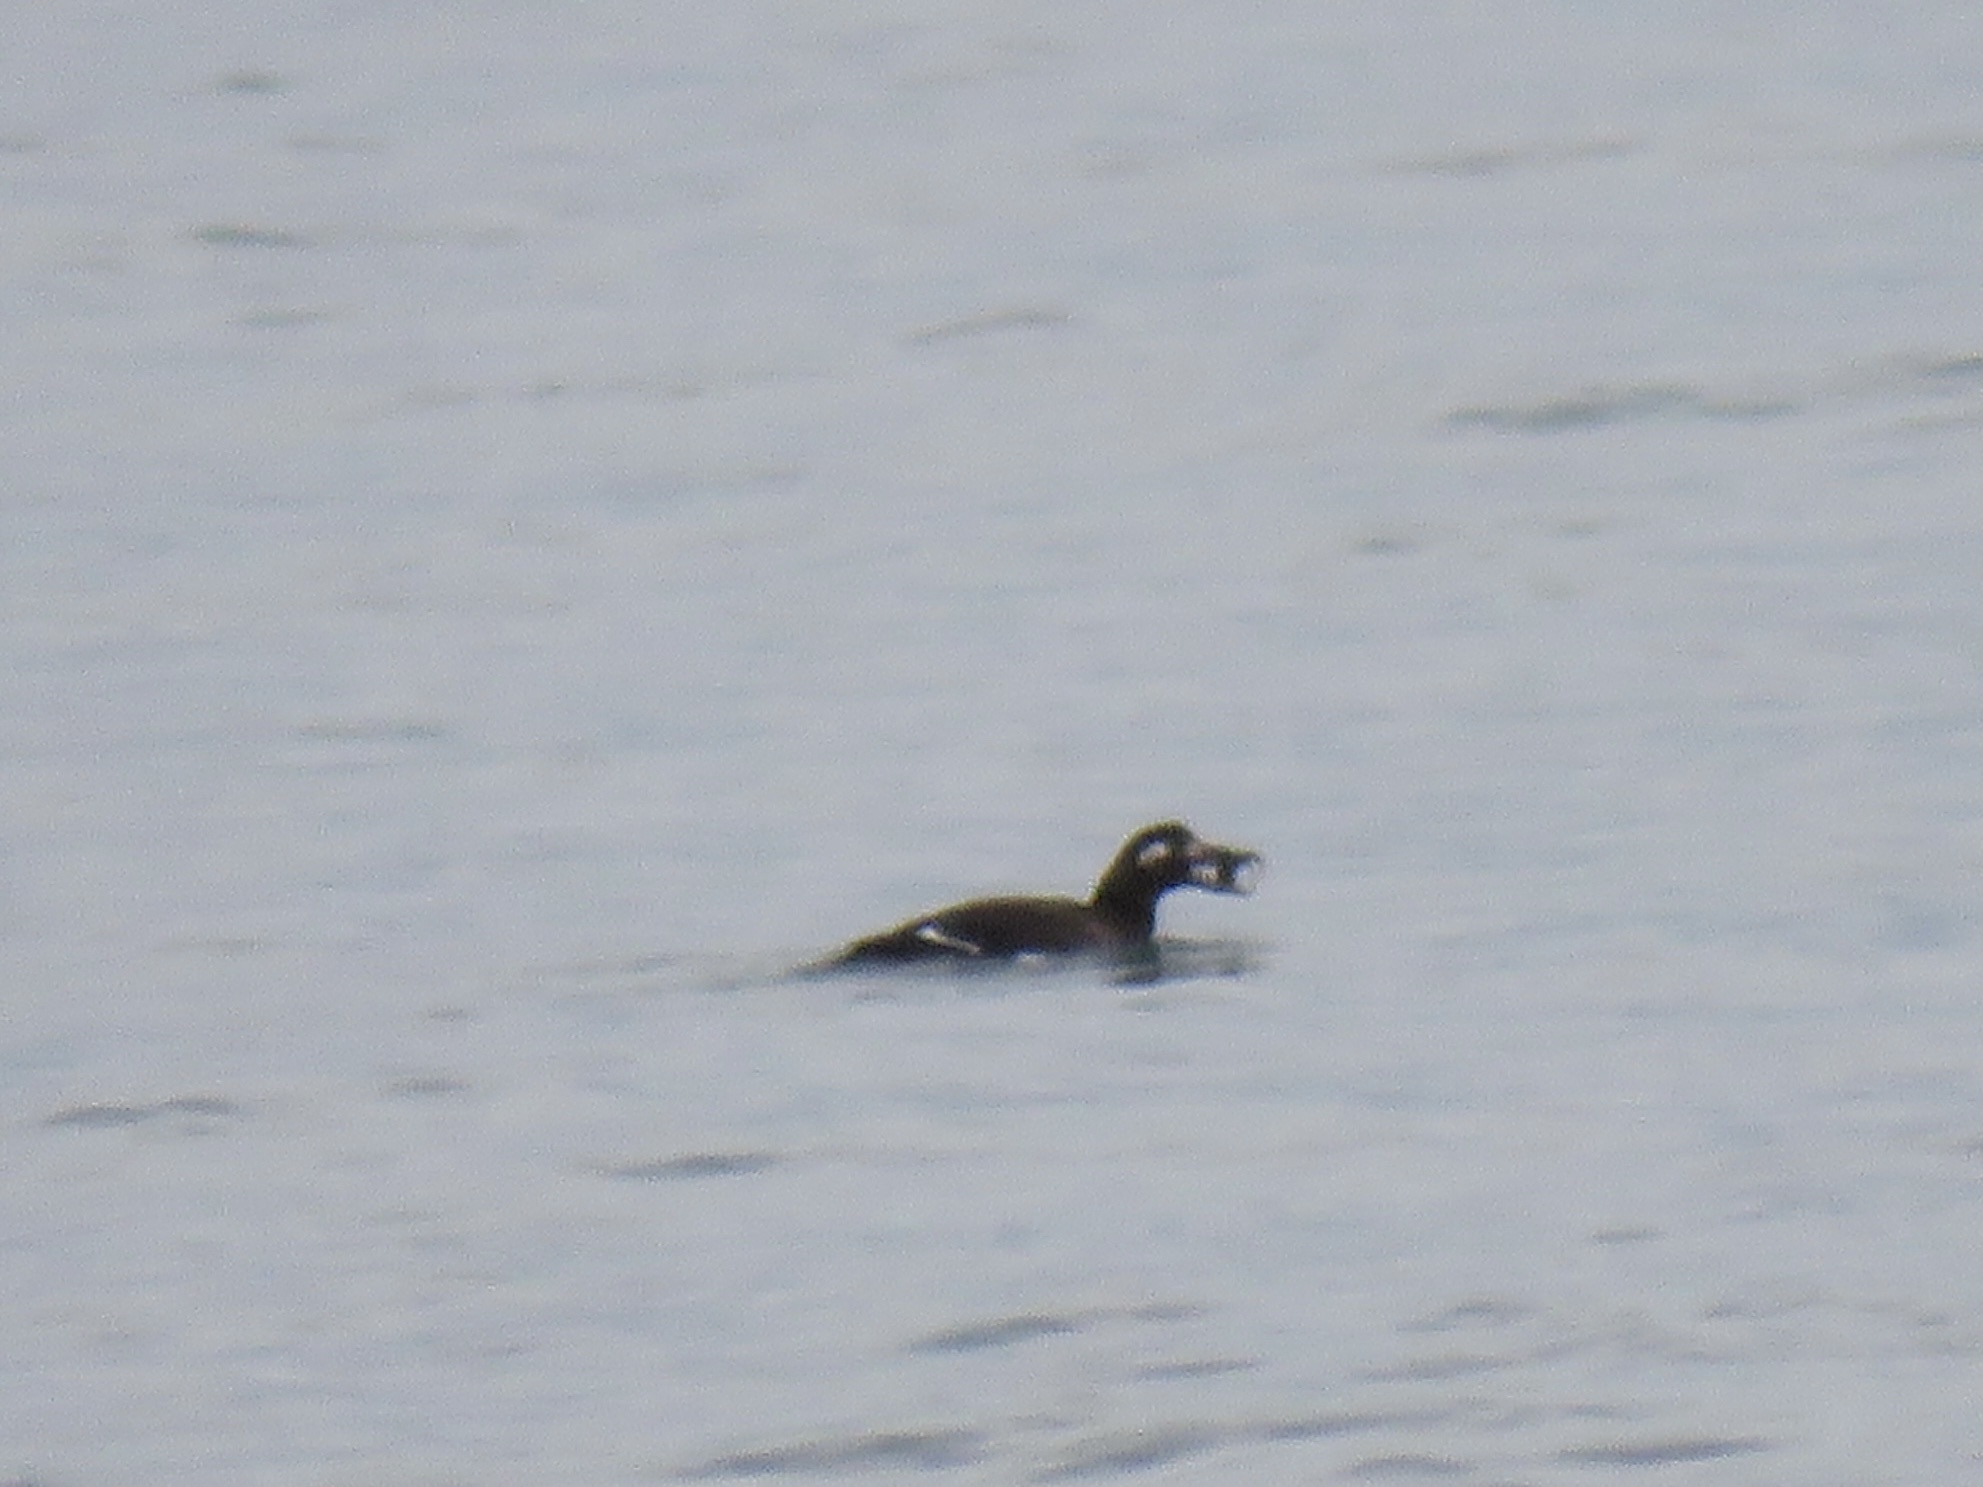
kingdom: Animalia
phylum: Chordata
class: Aves
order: Anseriformes
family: Anatidae
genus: Melanitta
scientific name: Melanitta deglandi
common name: White-winged scoter
